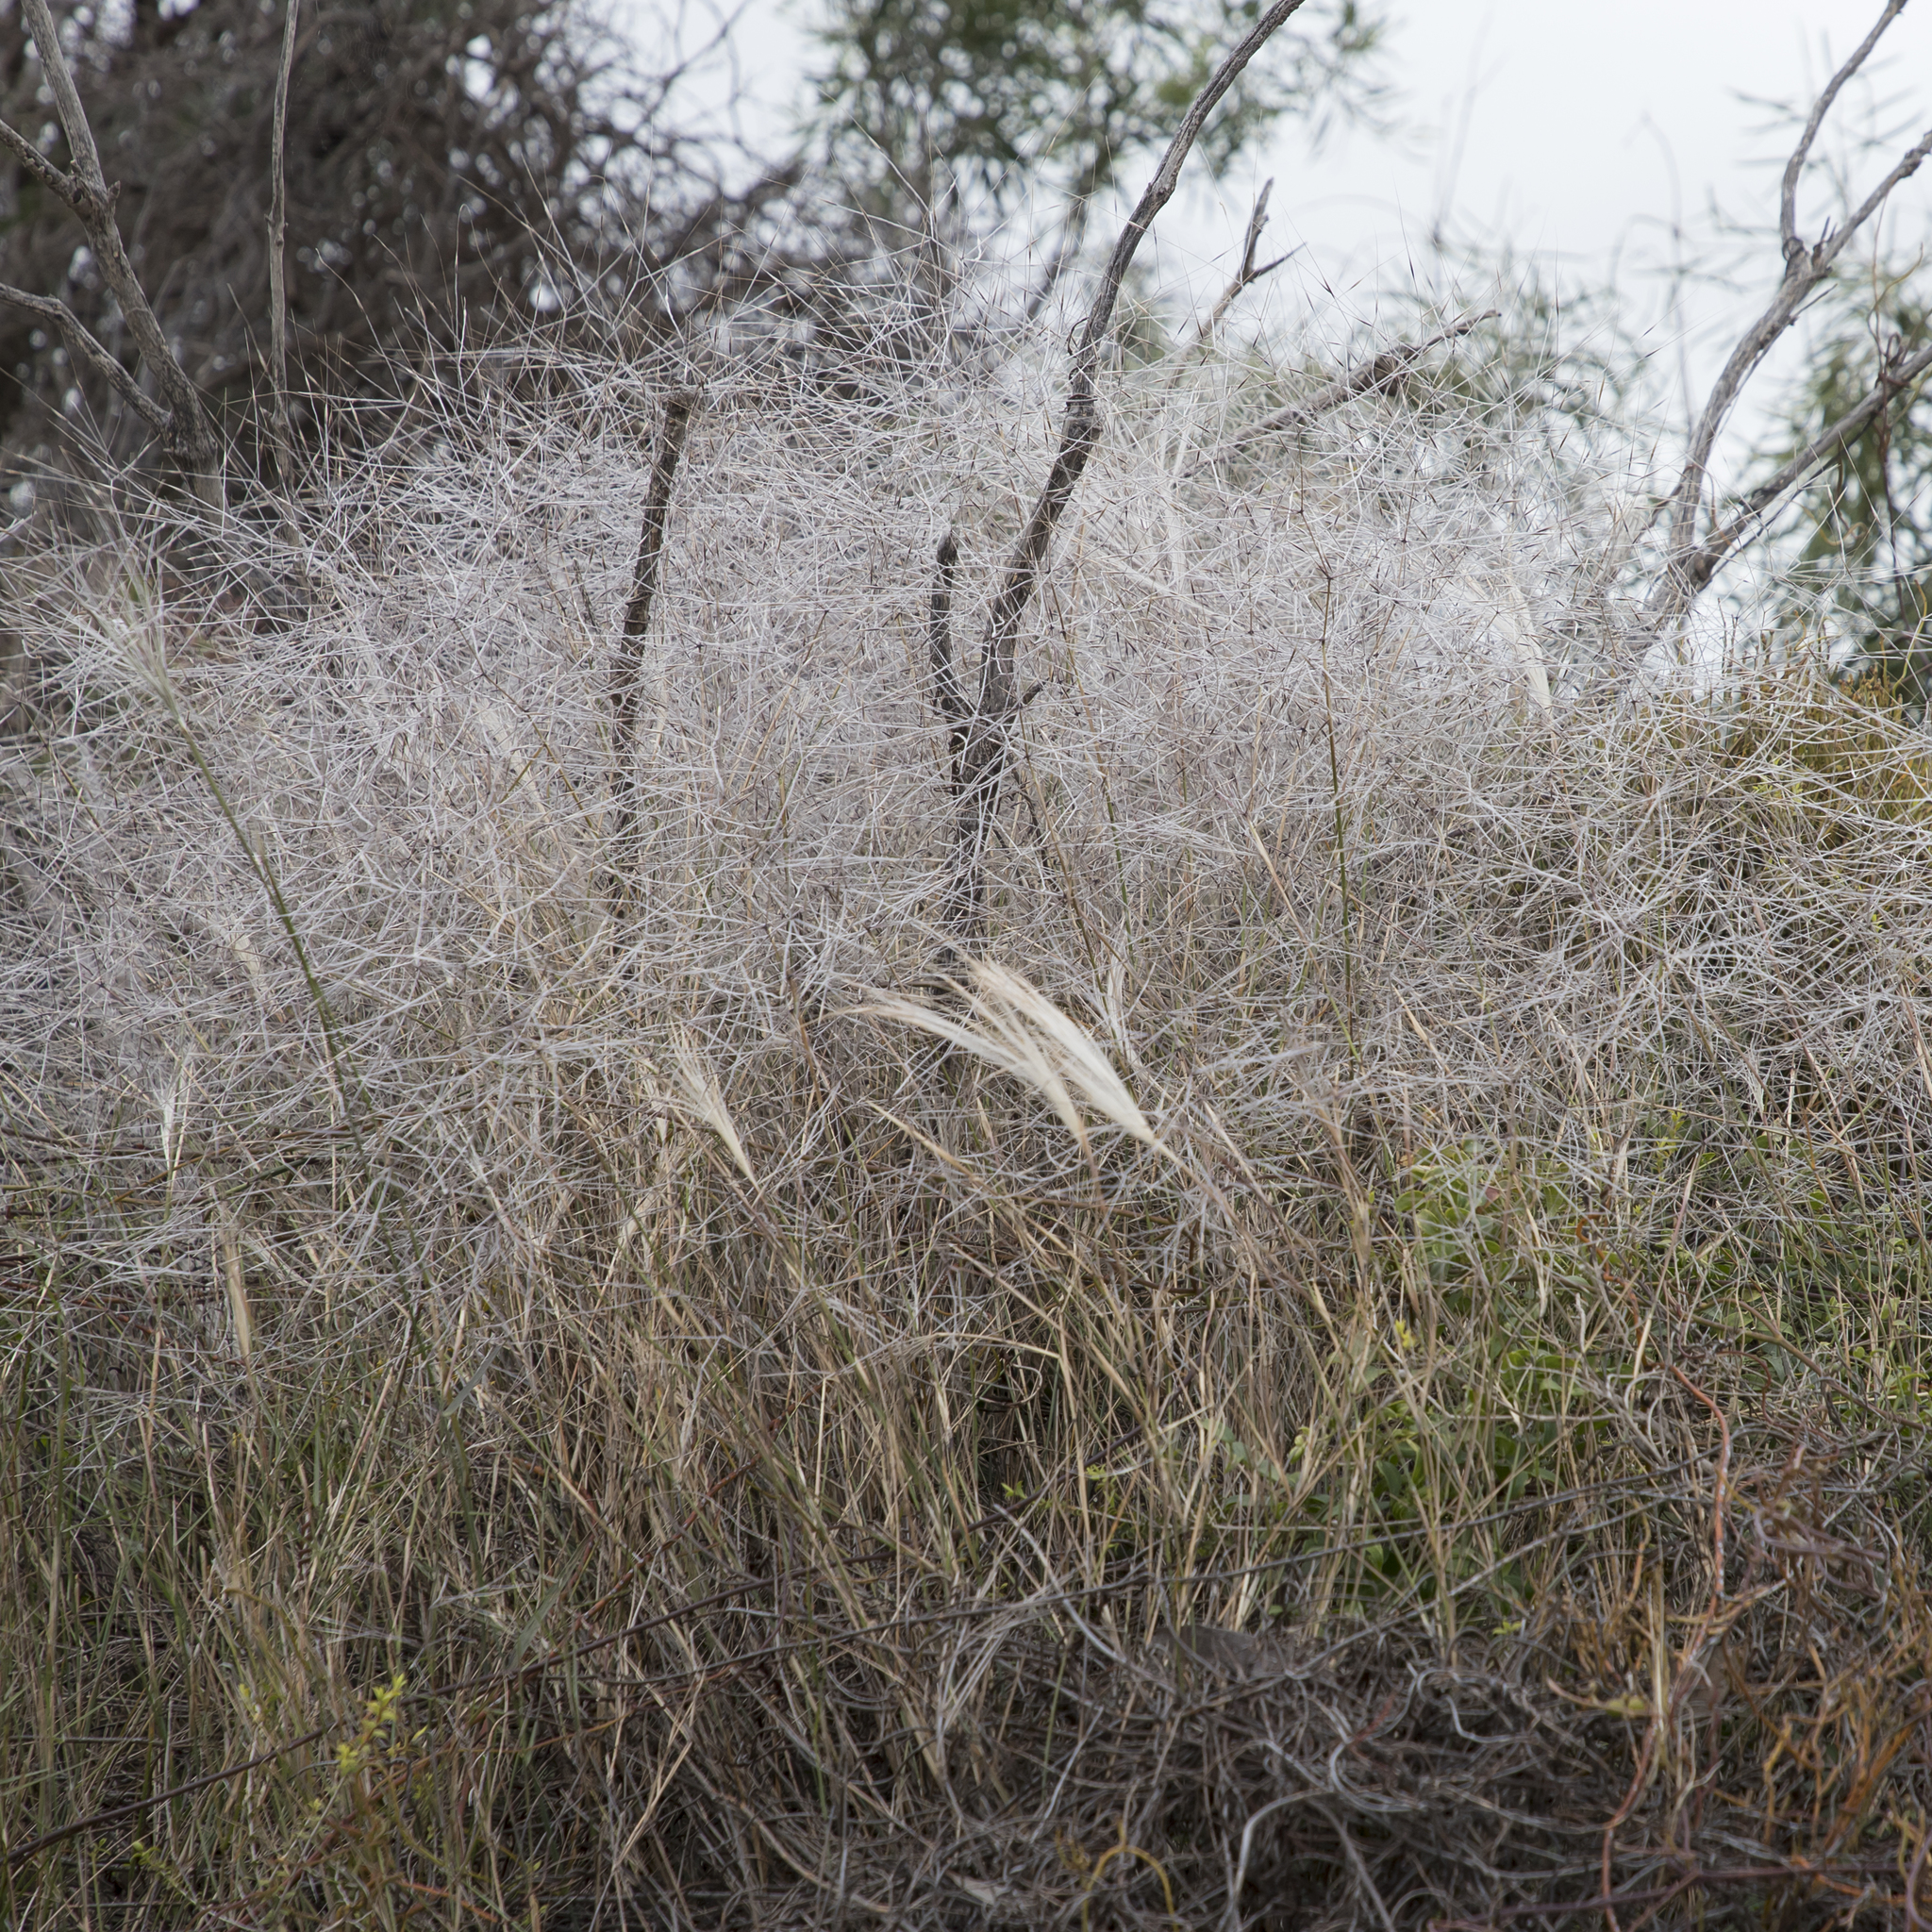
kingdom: Plantae
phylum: Tracheophyta
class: Liliopsida
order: Poales
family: Poaceae
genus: Austrostipa
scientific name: Austrostipa elegantissima
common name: Feather spear grass
